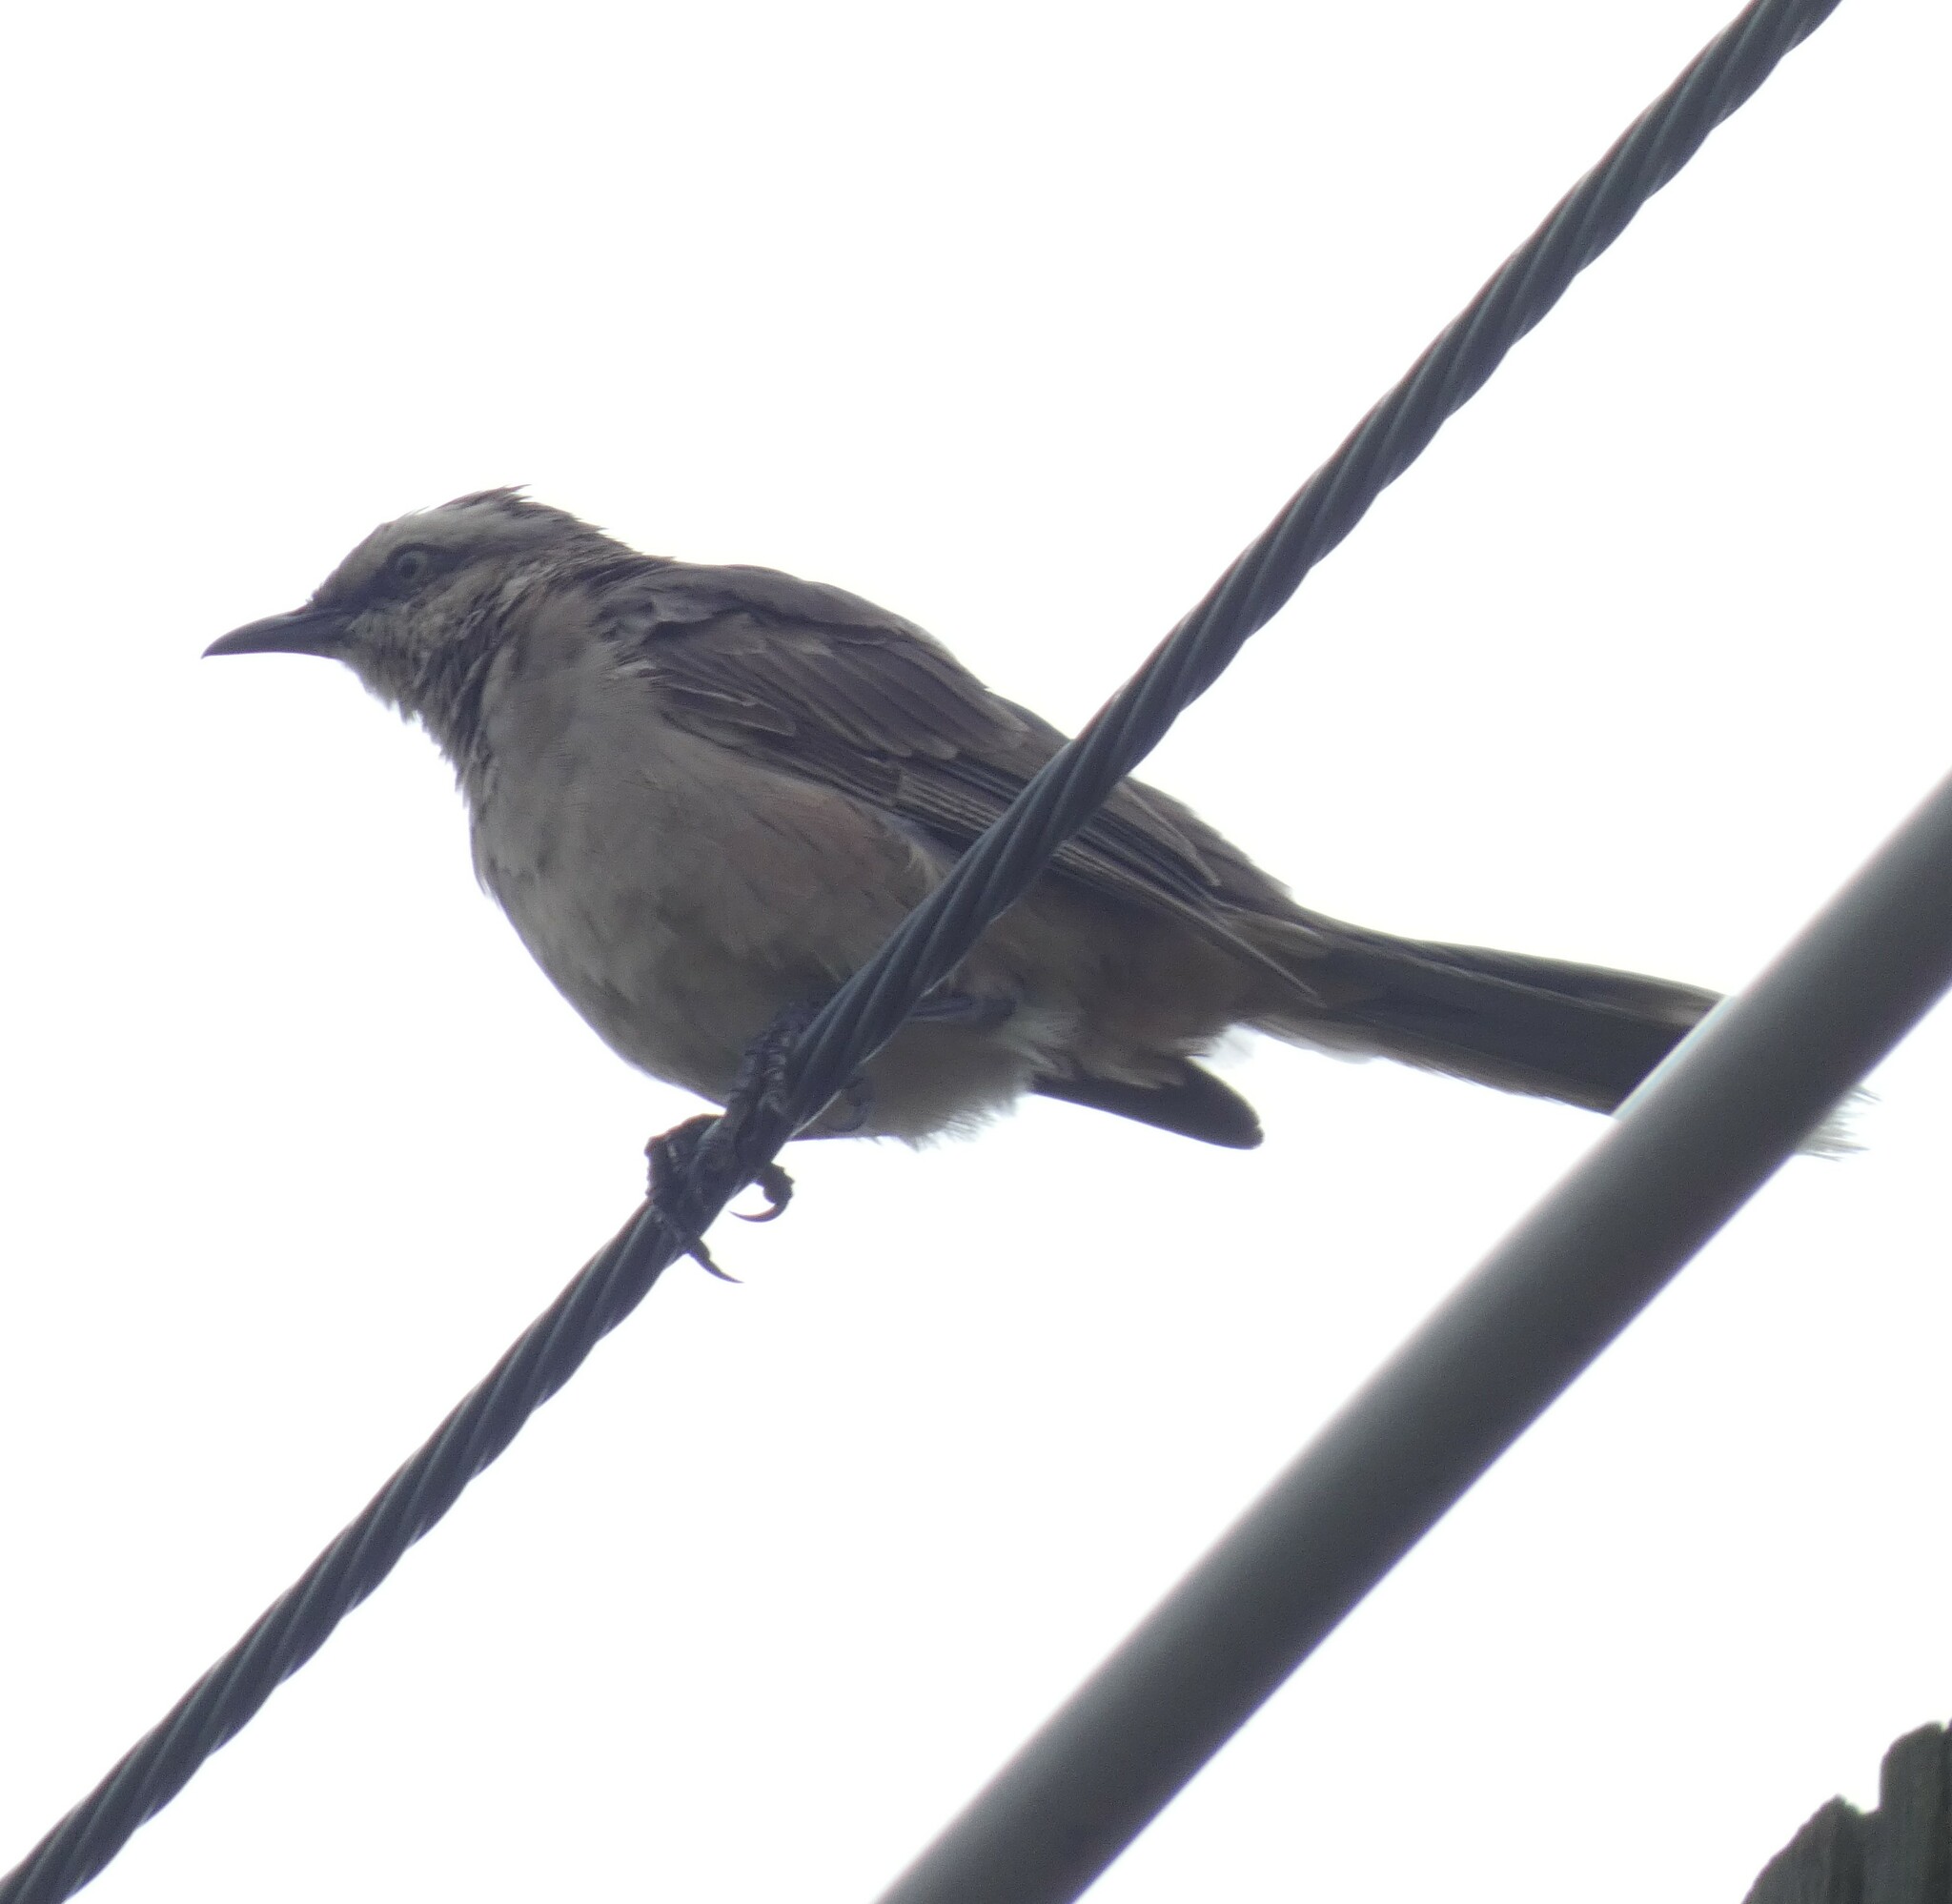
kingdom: Animalia
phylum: Chordata
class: Aves
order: Passeriformes
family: Mimidae
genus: Mimus
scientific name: Mimus saturninus
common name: Chalk-browed mockingbird
